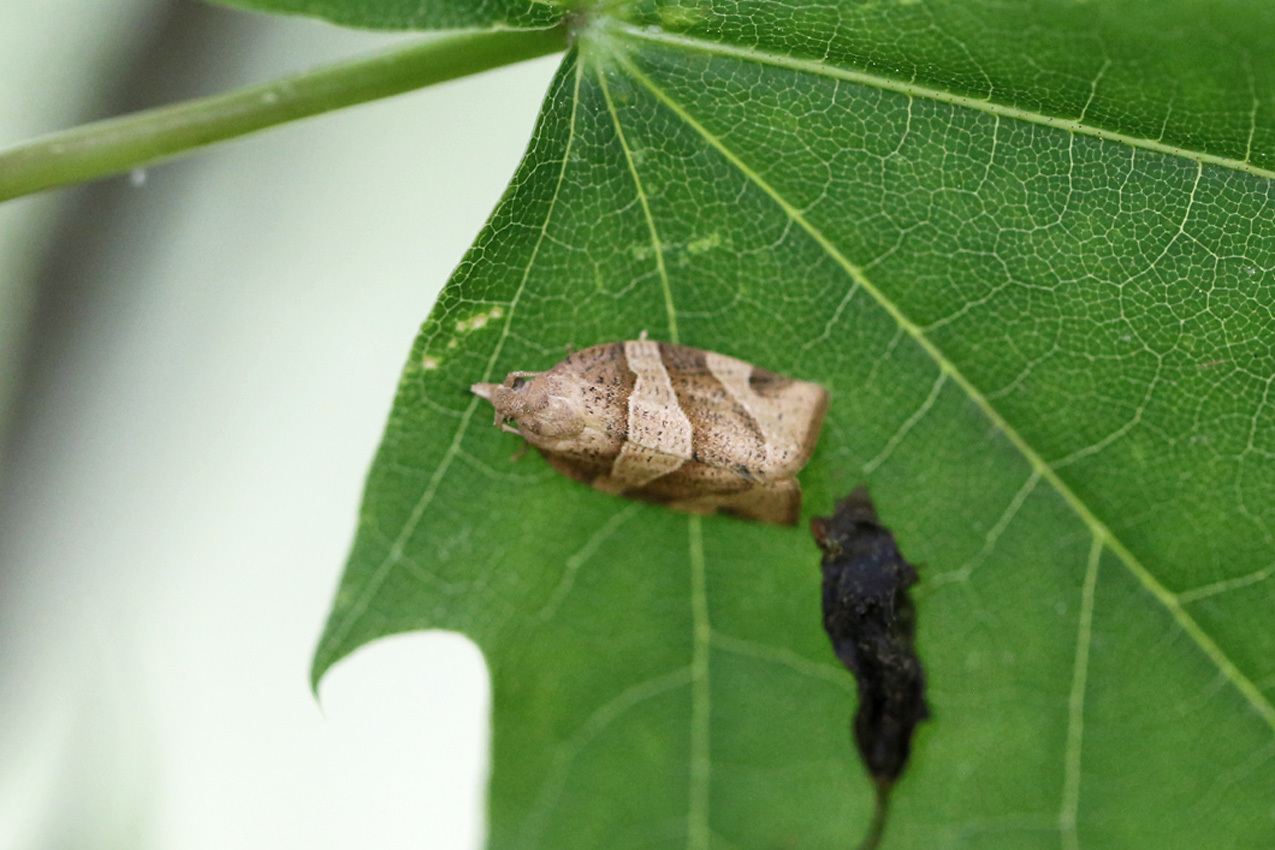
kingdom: Animalia
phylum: Arthropoda
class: Insecta
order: Lepidoptera
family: Tortricidae
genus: Pandemis
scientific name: Pandemis lamprosana
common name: Woodgrain leafroller moth
